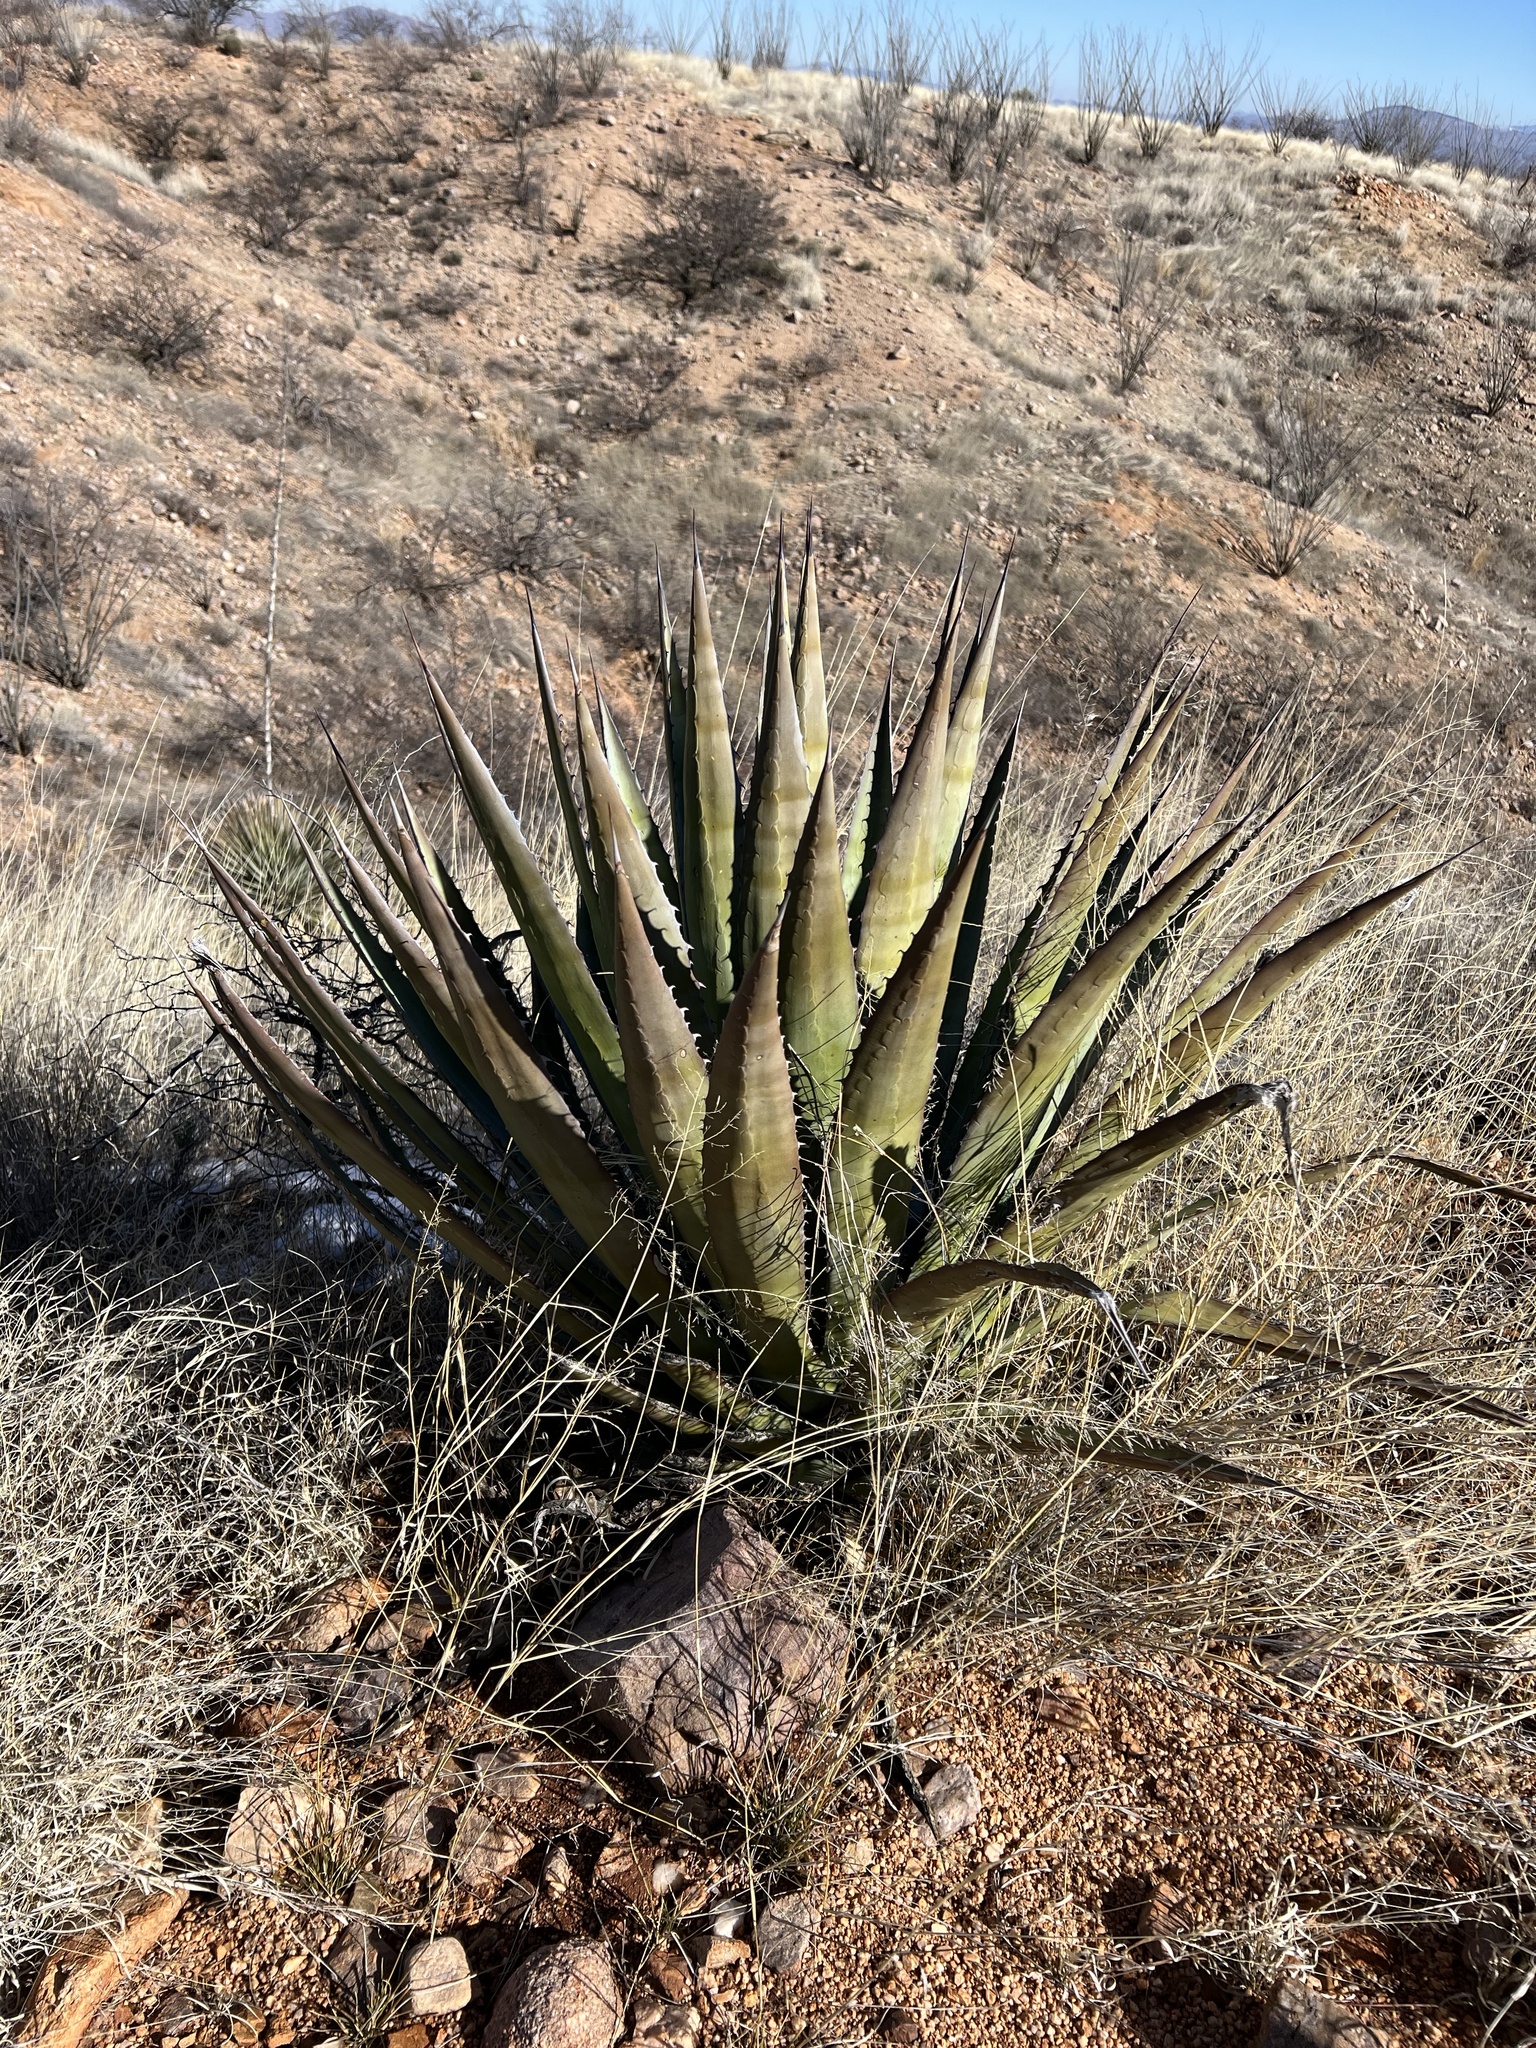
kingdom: Plantae
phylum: Tracheophyta
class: Liliopsida
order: Asparagales
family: Asparagaceae
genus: Agave
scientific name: Agave palmeri
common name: Palmer agave
